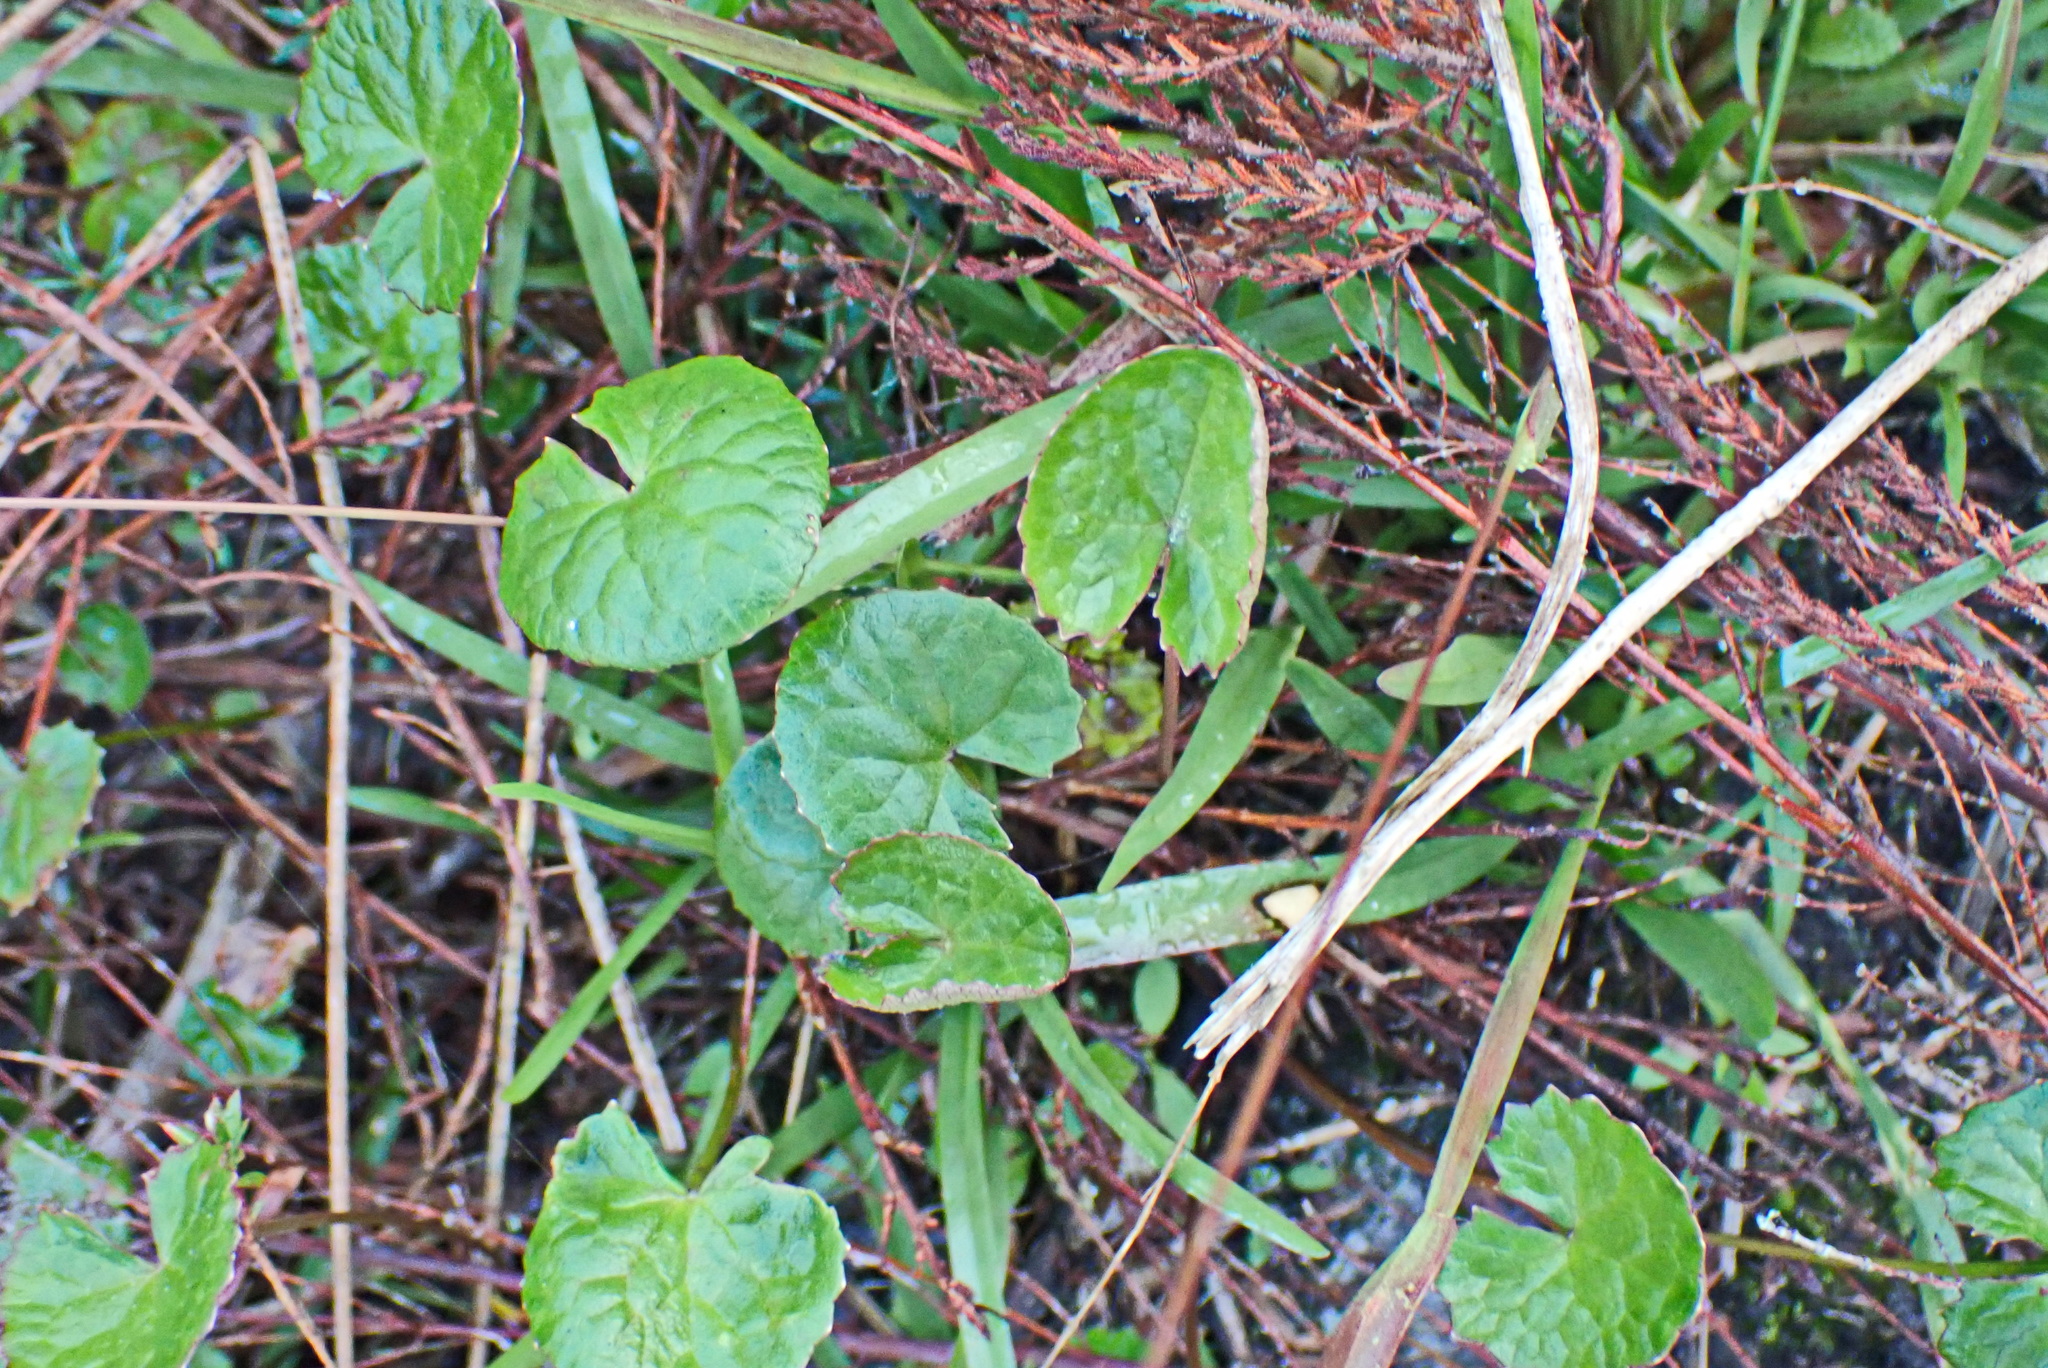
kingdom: Plantae
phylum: Tracheophyta
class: Magnoliopsida
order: Apiales
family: Apiaceae
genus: Centella
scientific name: Centella asiatica
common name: Spadeleaf
